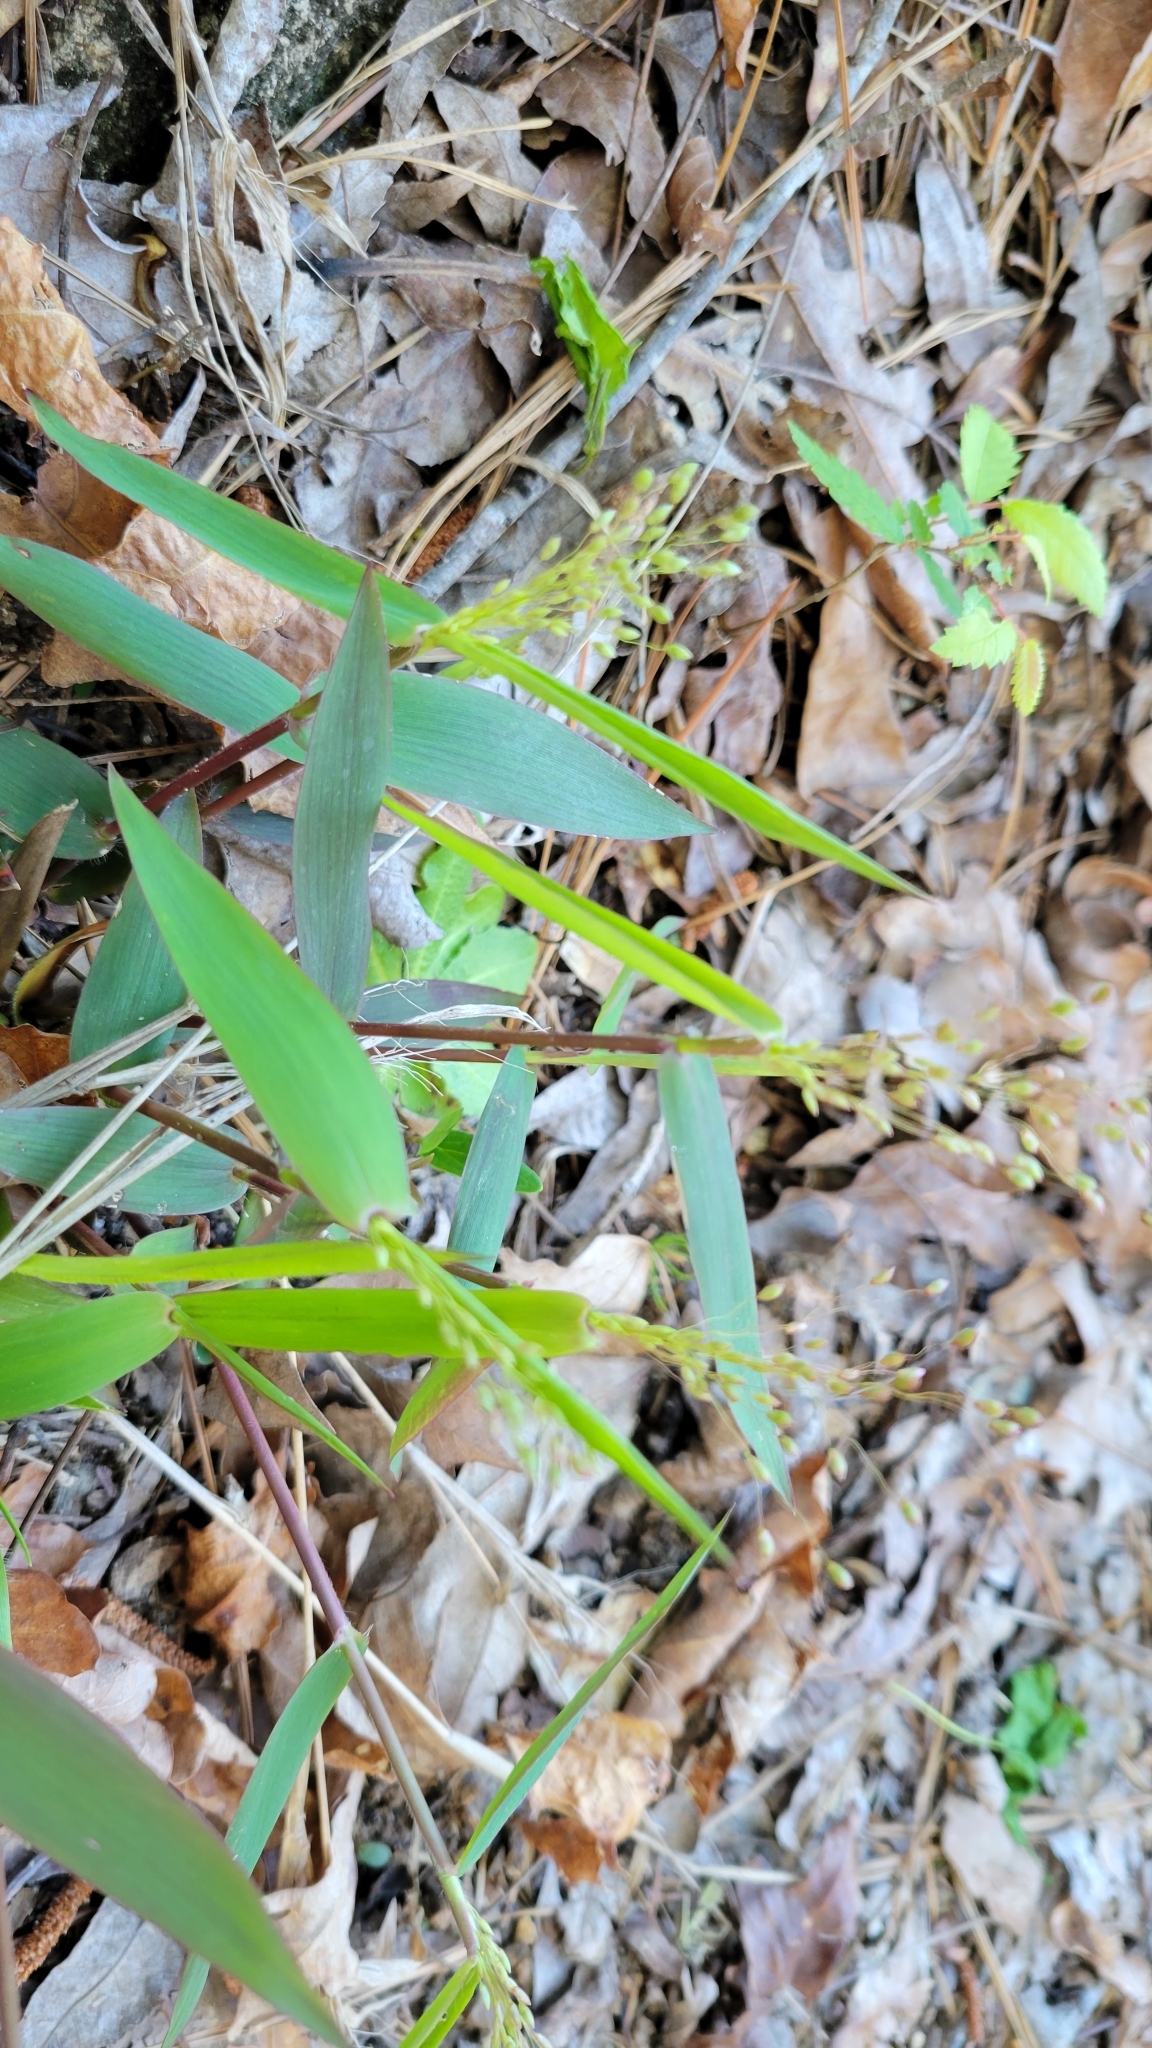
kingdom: Plantae
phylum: Tracheophyta
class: Liliopsida
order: Poales
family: Poaceae
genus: Dichanthelium
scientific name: Dichanthelium commutatum
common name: Variable witchgrass
